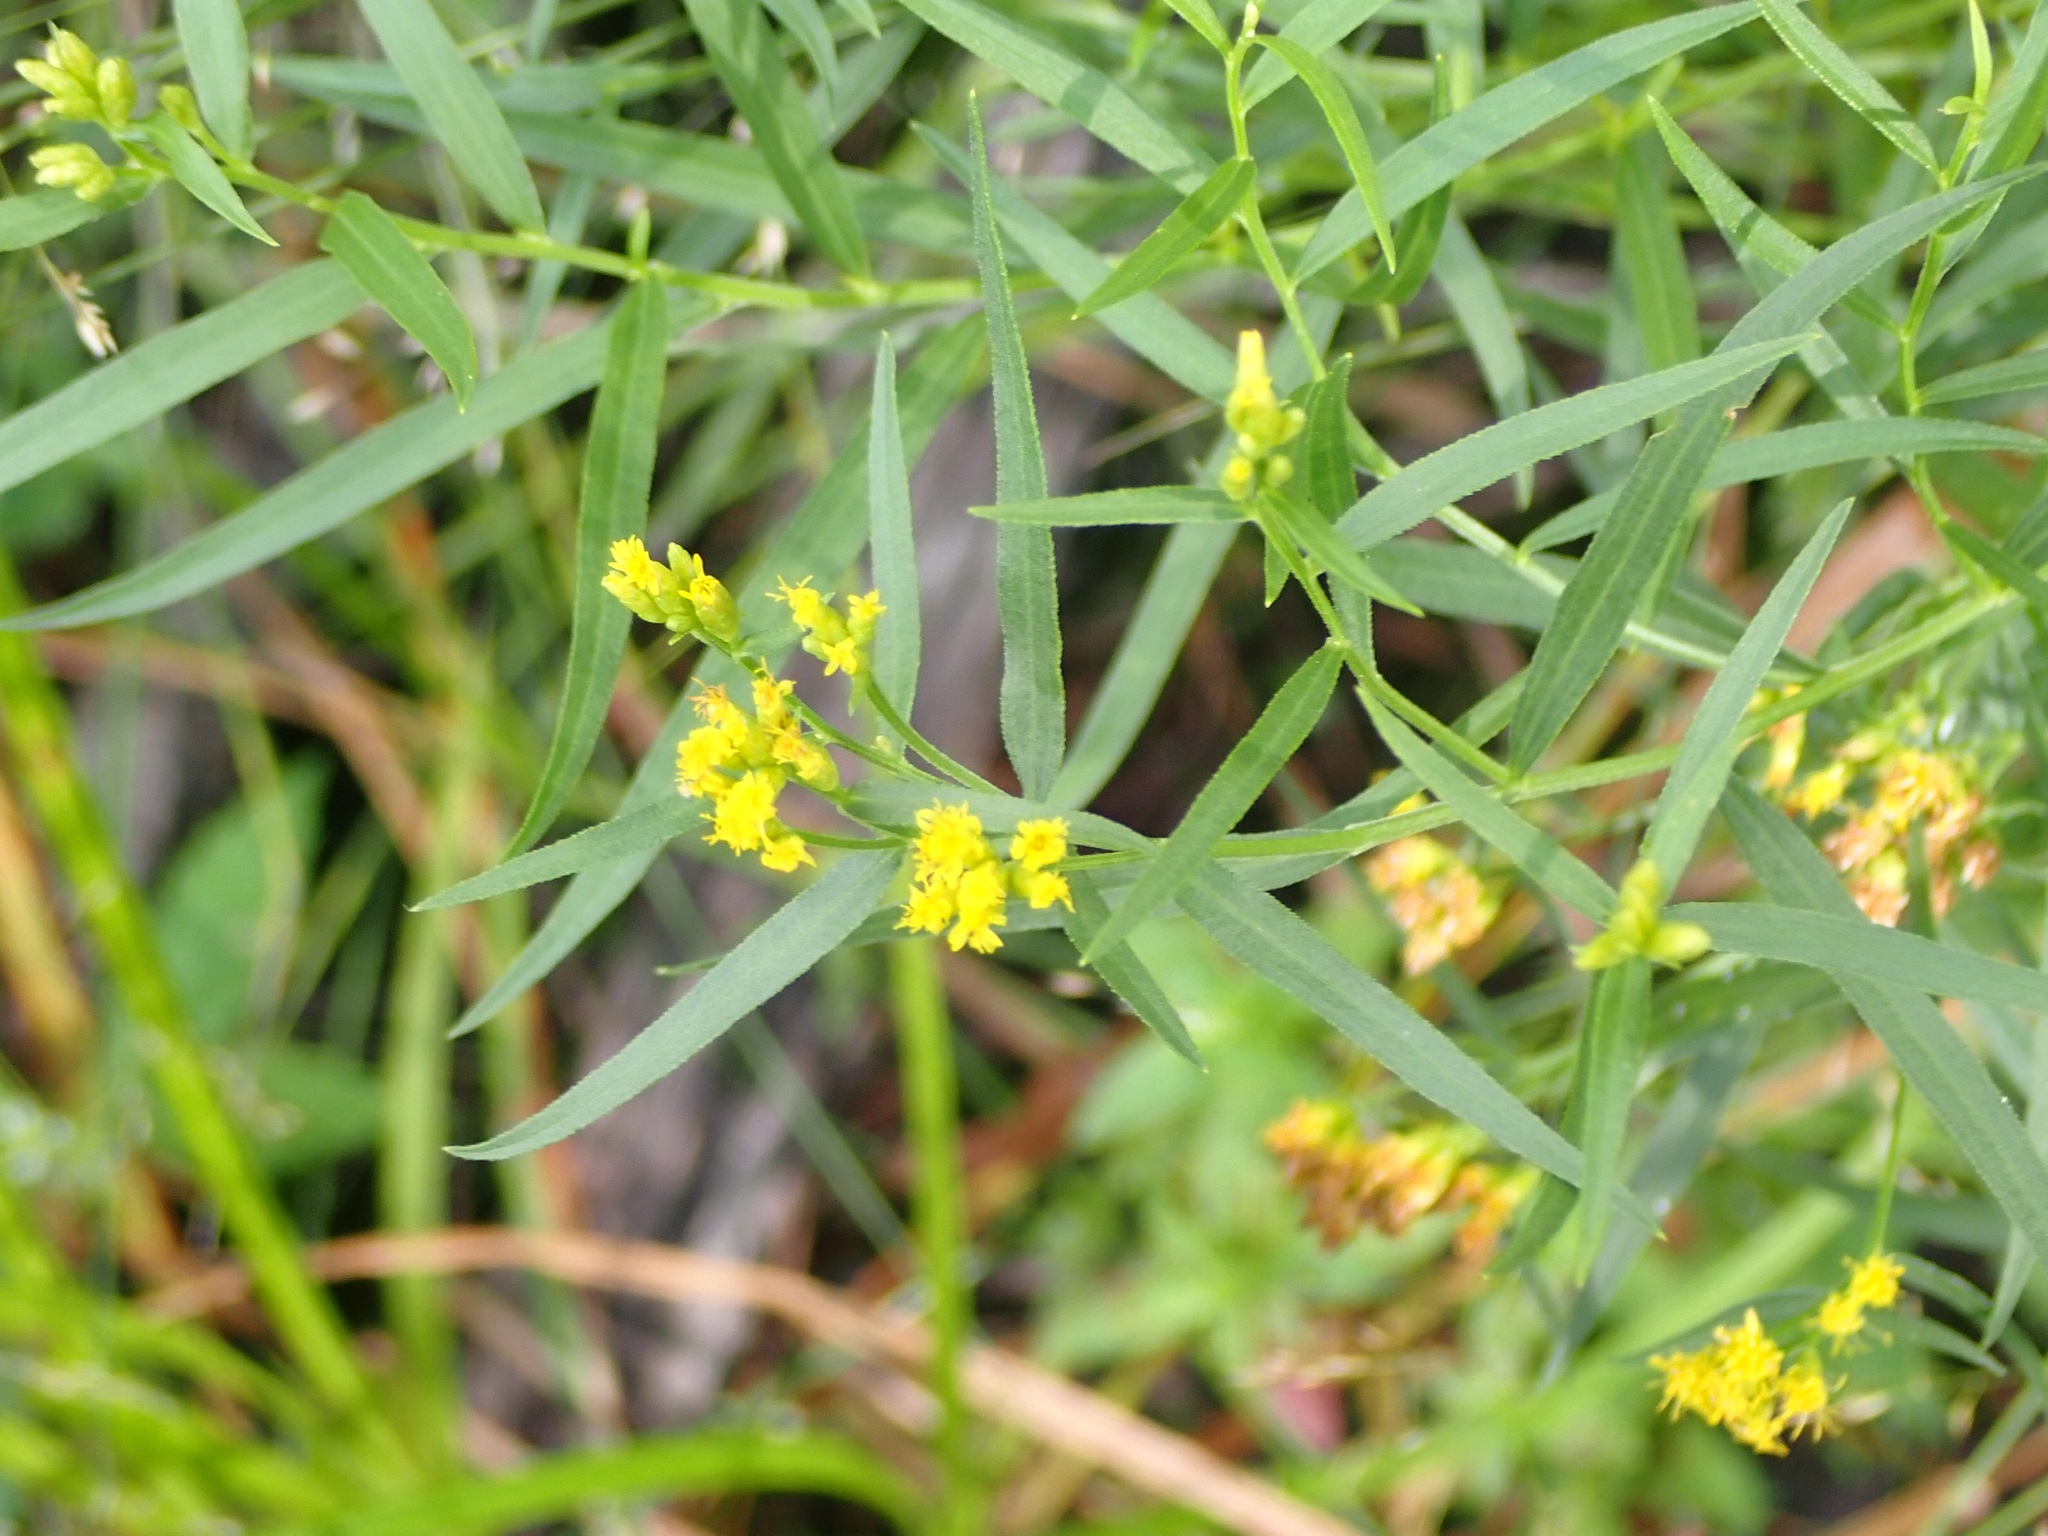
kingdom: Plantae
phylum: Tracheophyta
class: Magnoliopsida
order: Asterales
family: Asteraceae
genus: Euthamia
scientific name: Euthamia graminifolia
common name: Common goldentop
